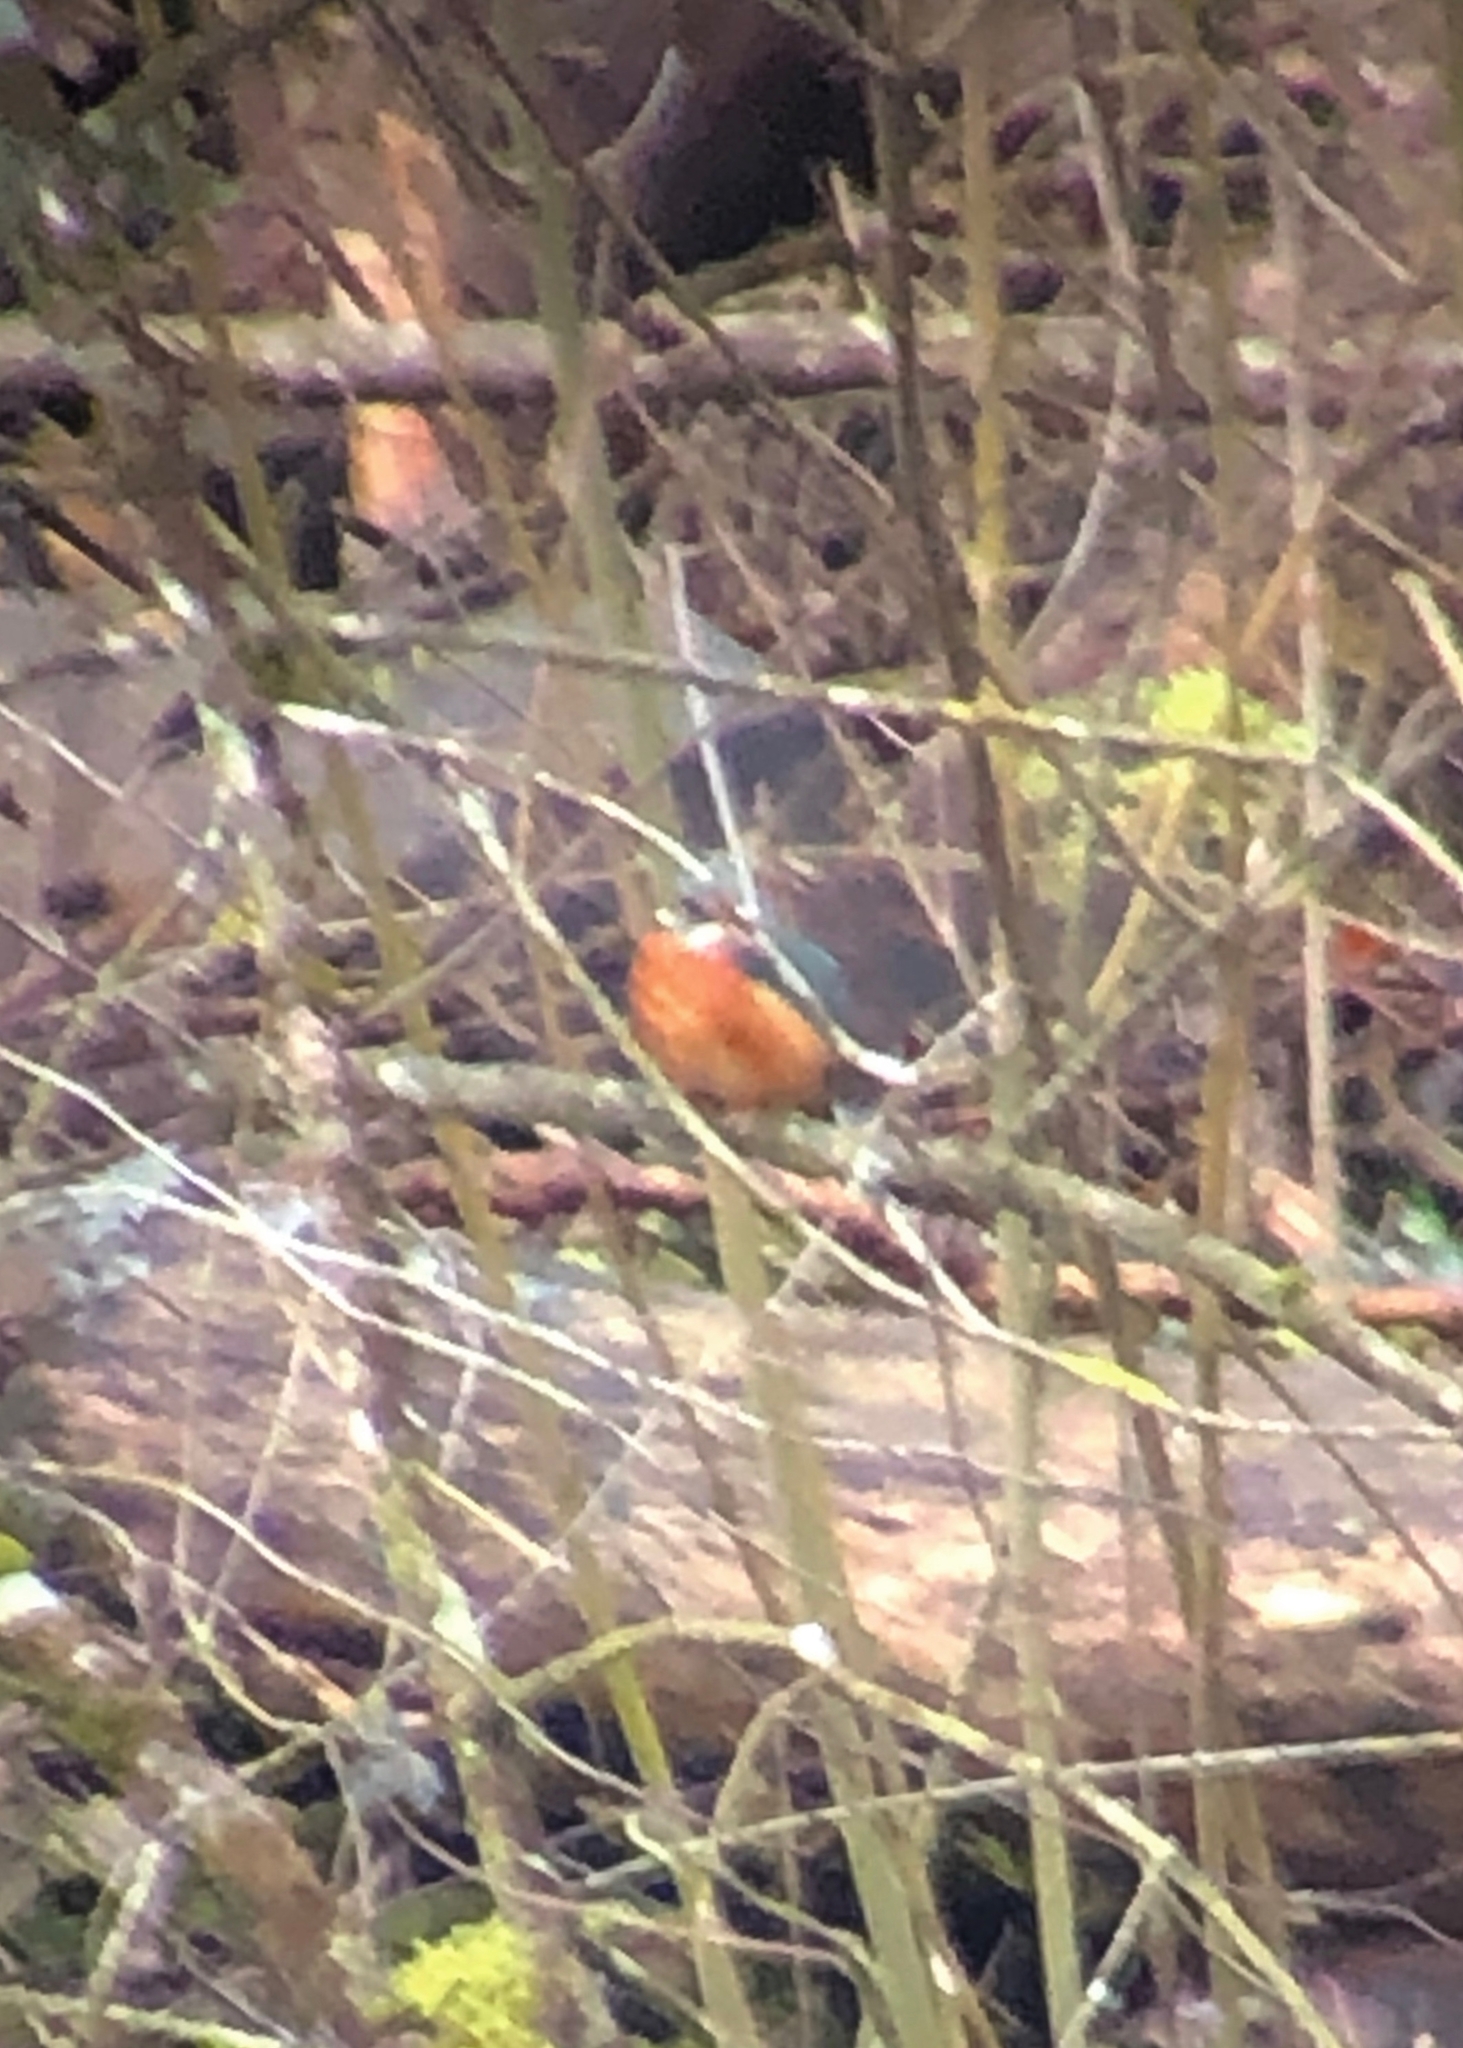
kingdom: Animalia
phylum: Chordata
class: Aves
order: Coraciiformes
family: Alcedinidae
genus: Alcedo
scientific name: Alcedo atthis
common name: Common kingfisher
